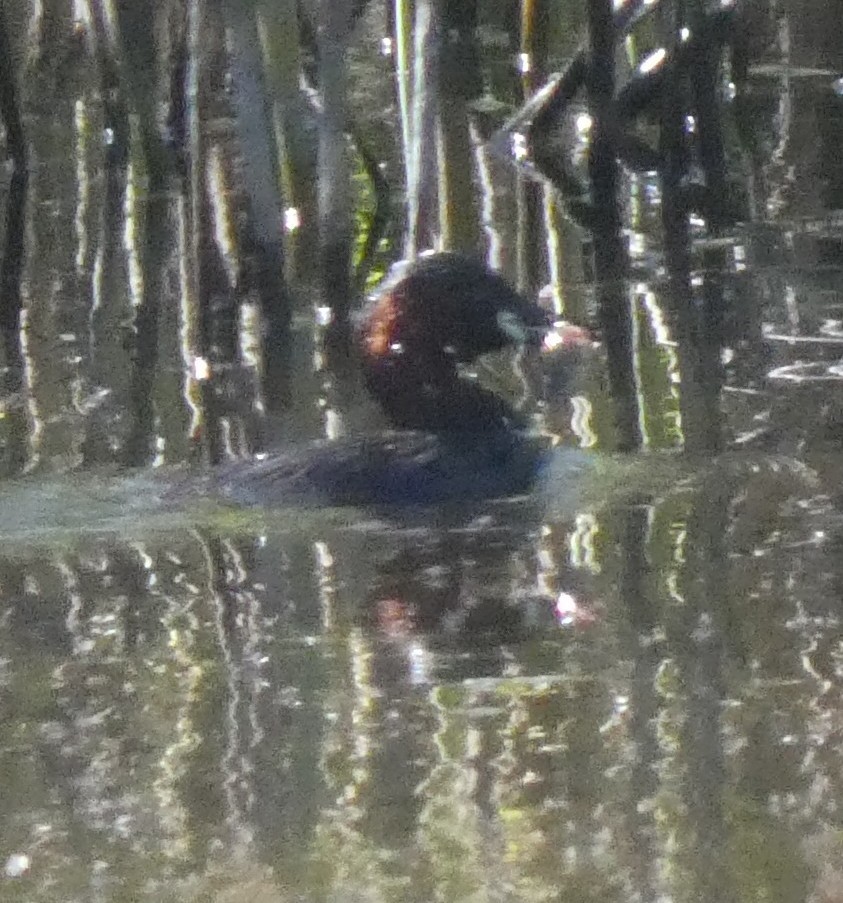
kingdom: Animalia
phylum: Chordata
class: Aves
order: Podicipediformes
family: Podicipedidae
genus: Tachybaptus
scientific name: Tachybaptus ruficollis
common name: Little grebe
